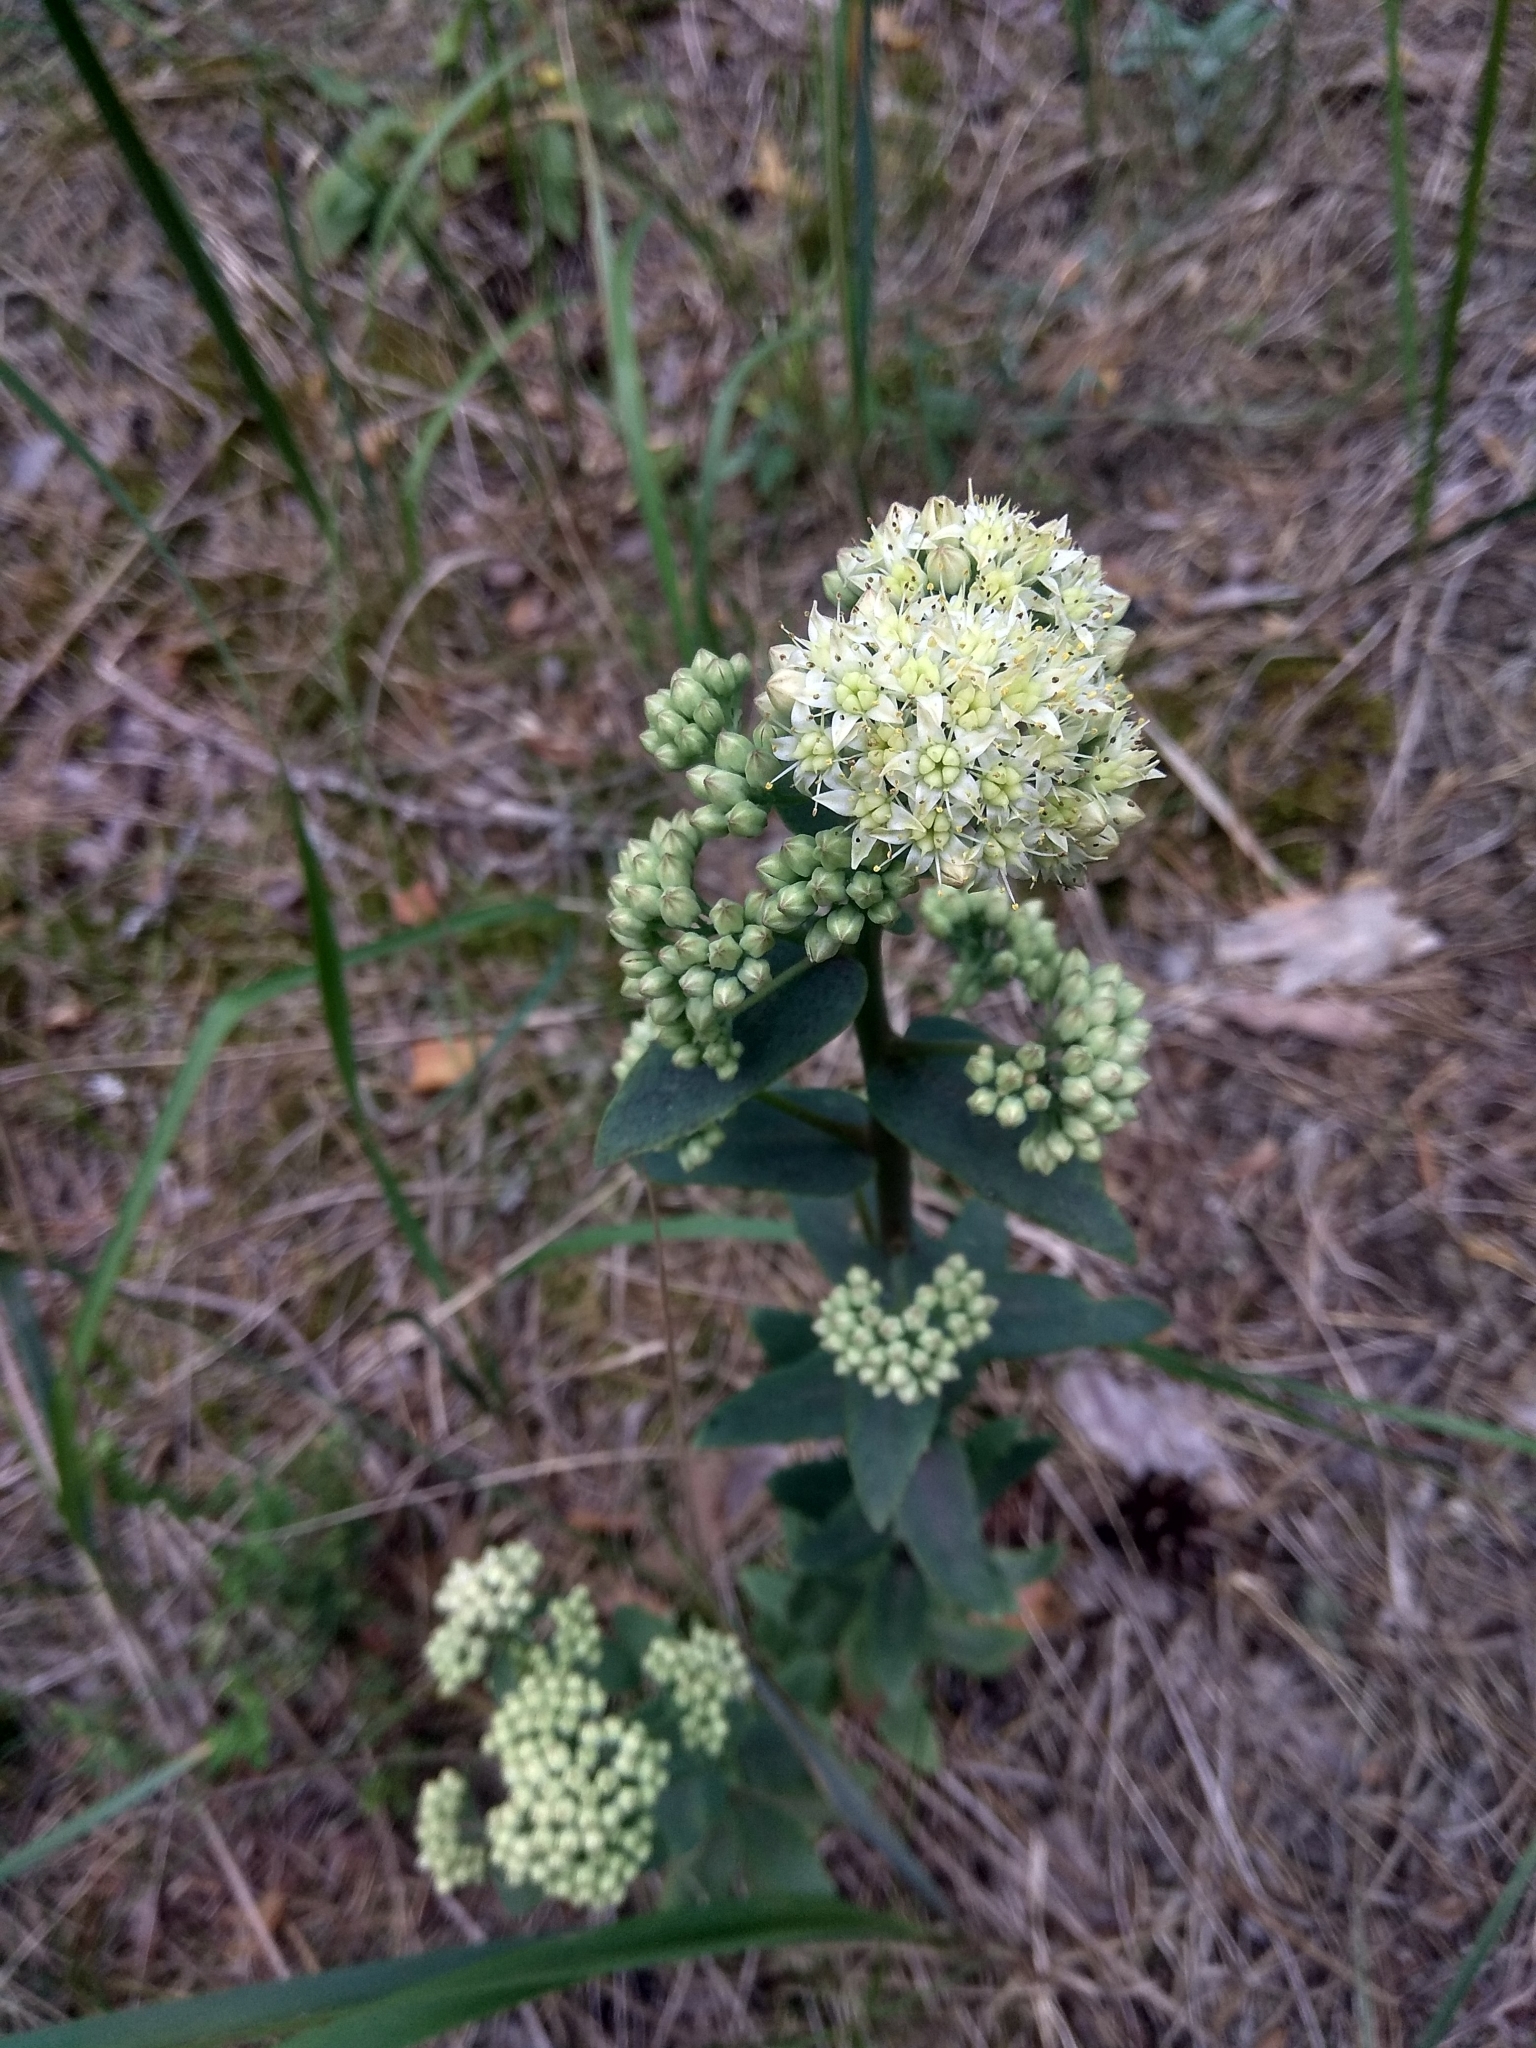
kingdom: Plantae
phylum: Tracheophyta
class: Magnoliopsida
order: Saxifragales
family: Crassulaceae
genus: Hylotelephium
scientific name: Hylotelephium maximum
